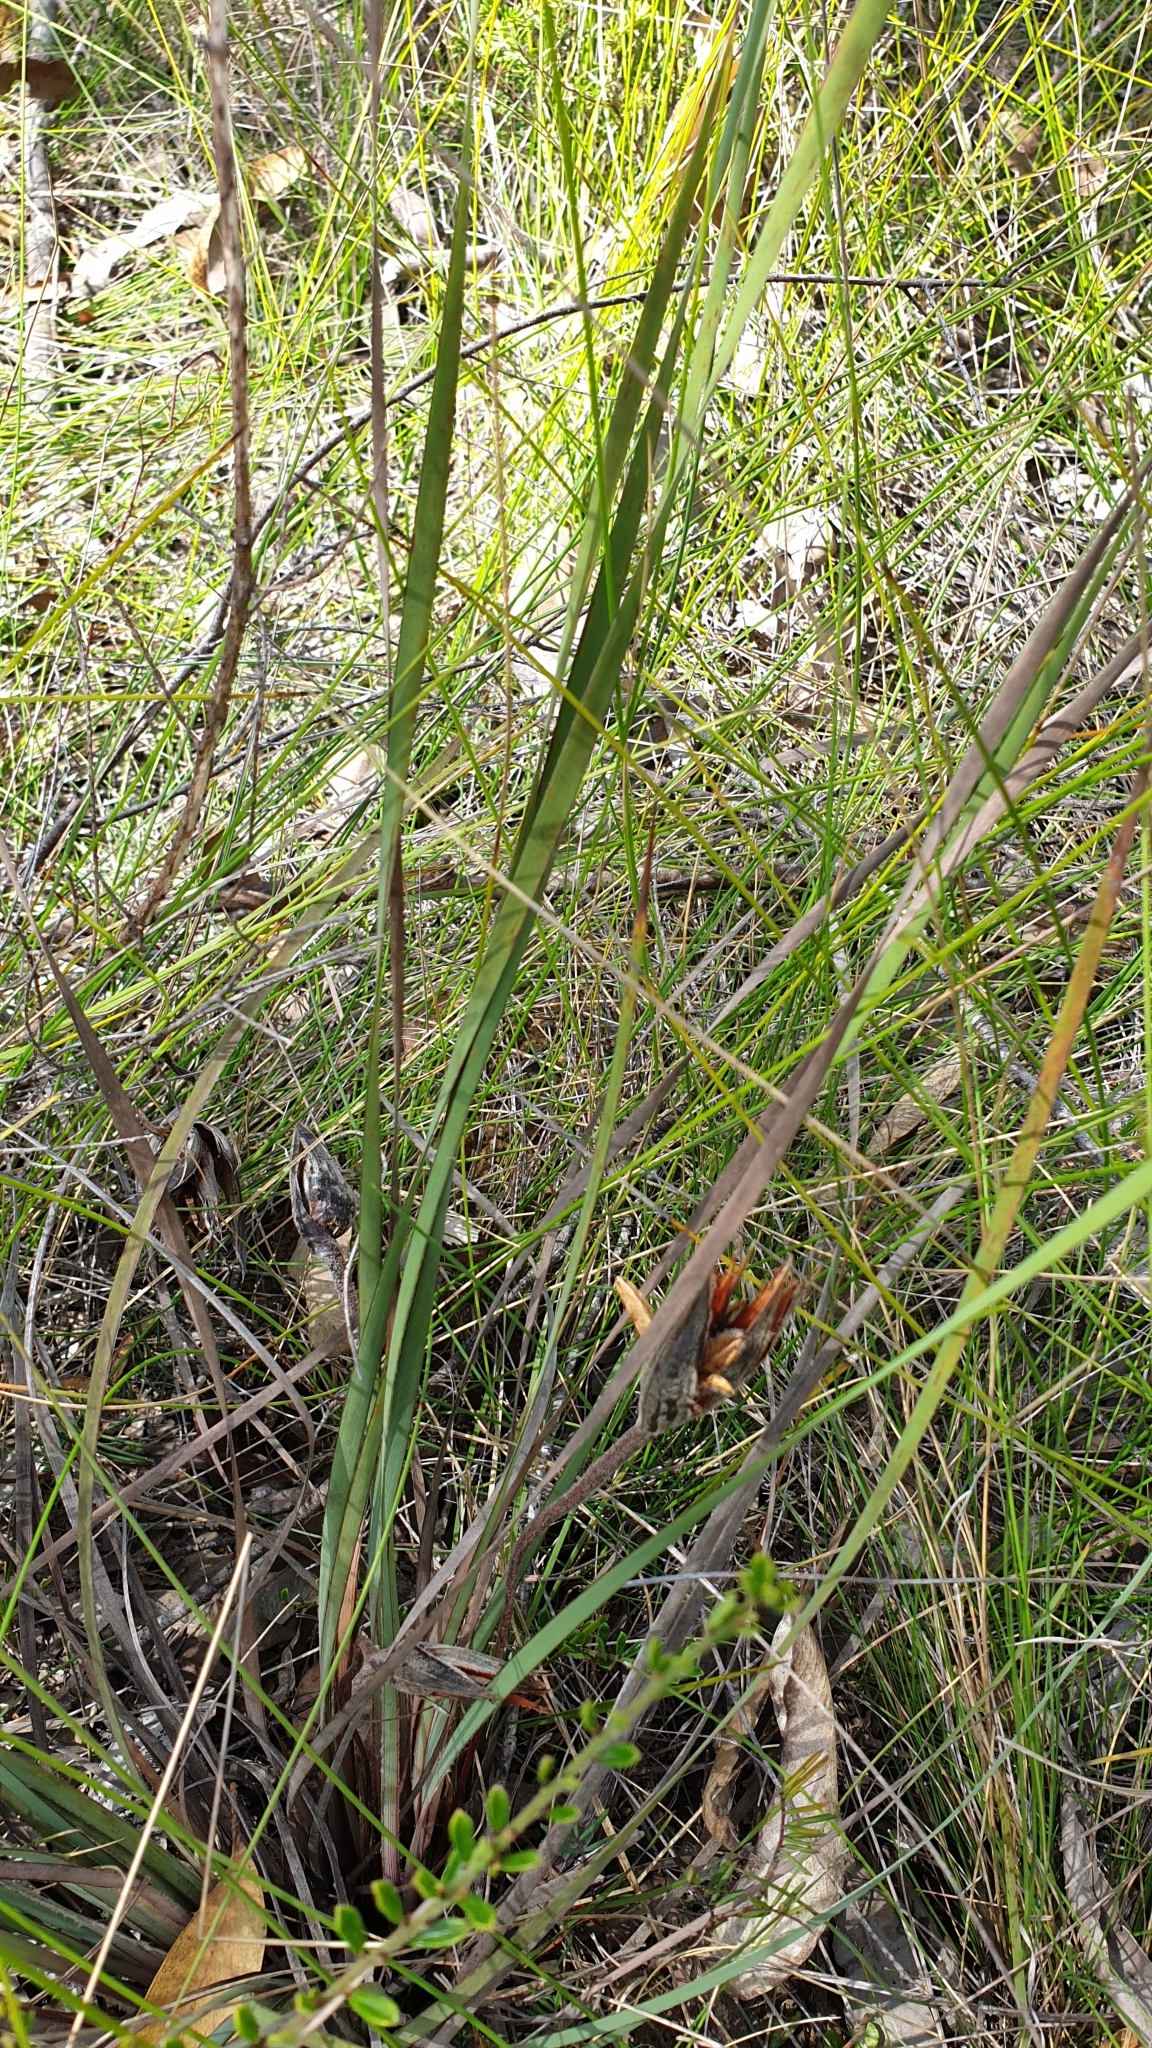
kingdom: Plantae
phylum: Tracheophyta
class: Liliopsida
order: Asparagales
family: Iridaceae
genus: Patersonia
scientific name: Patersonia sericea
